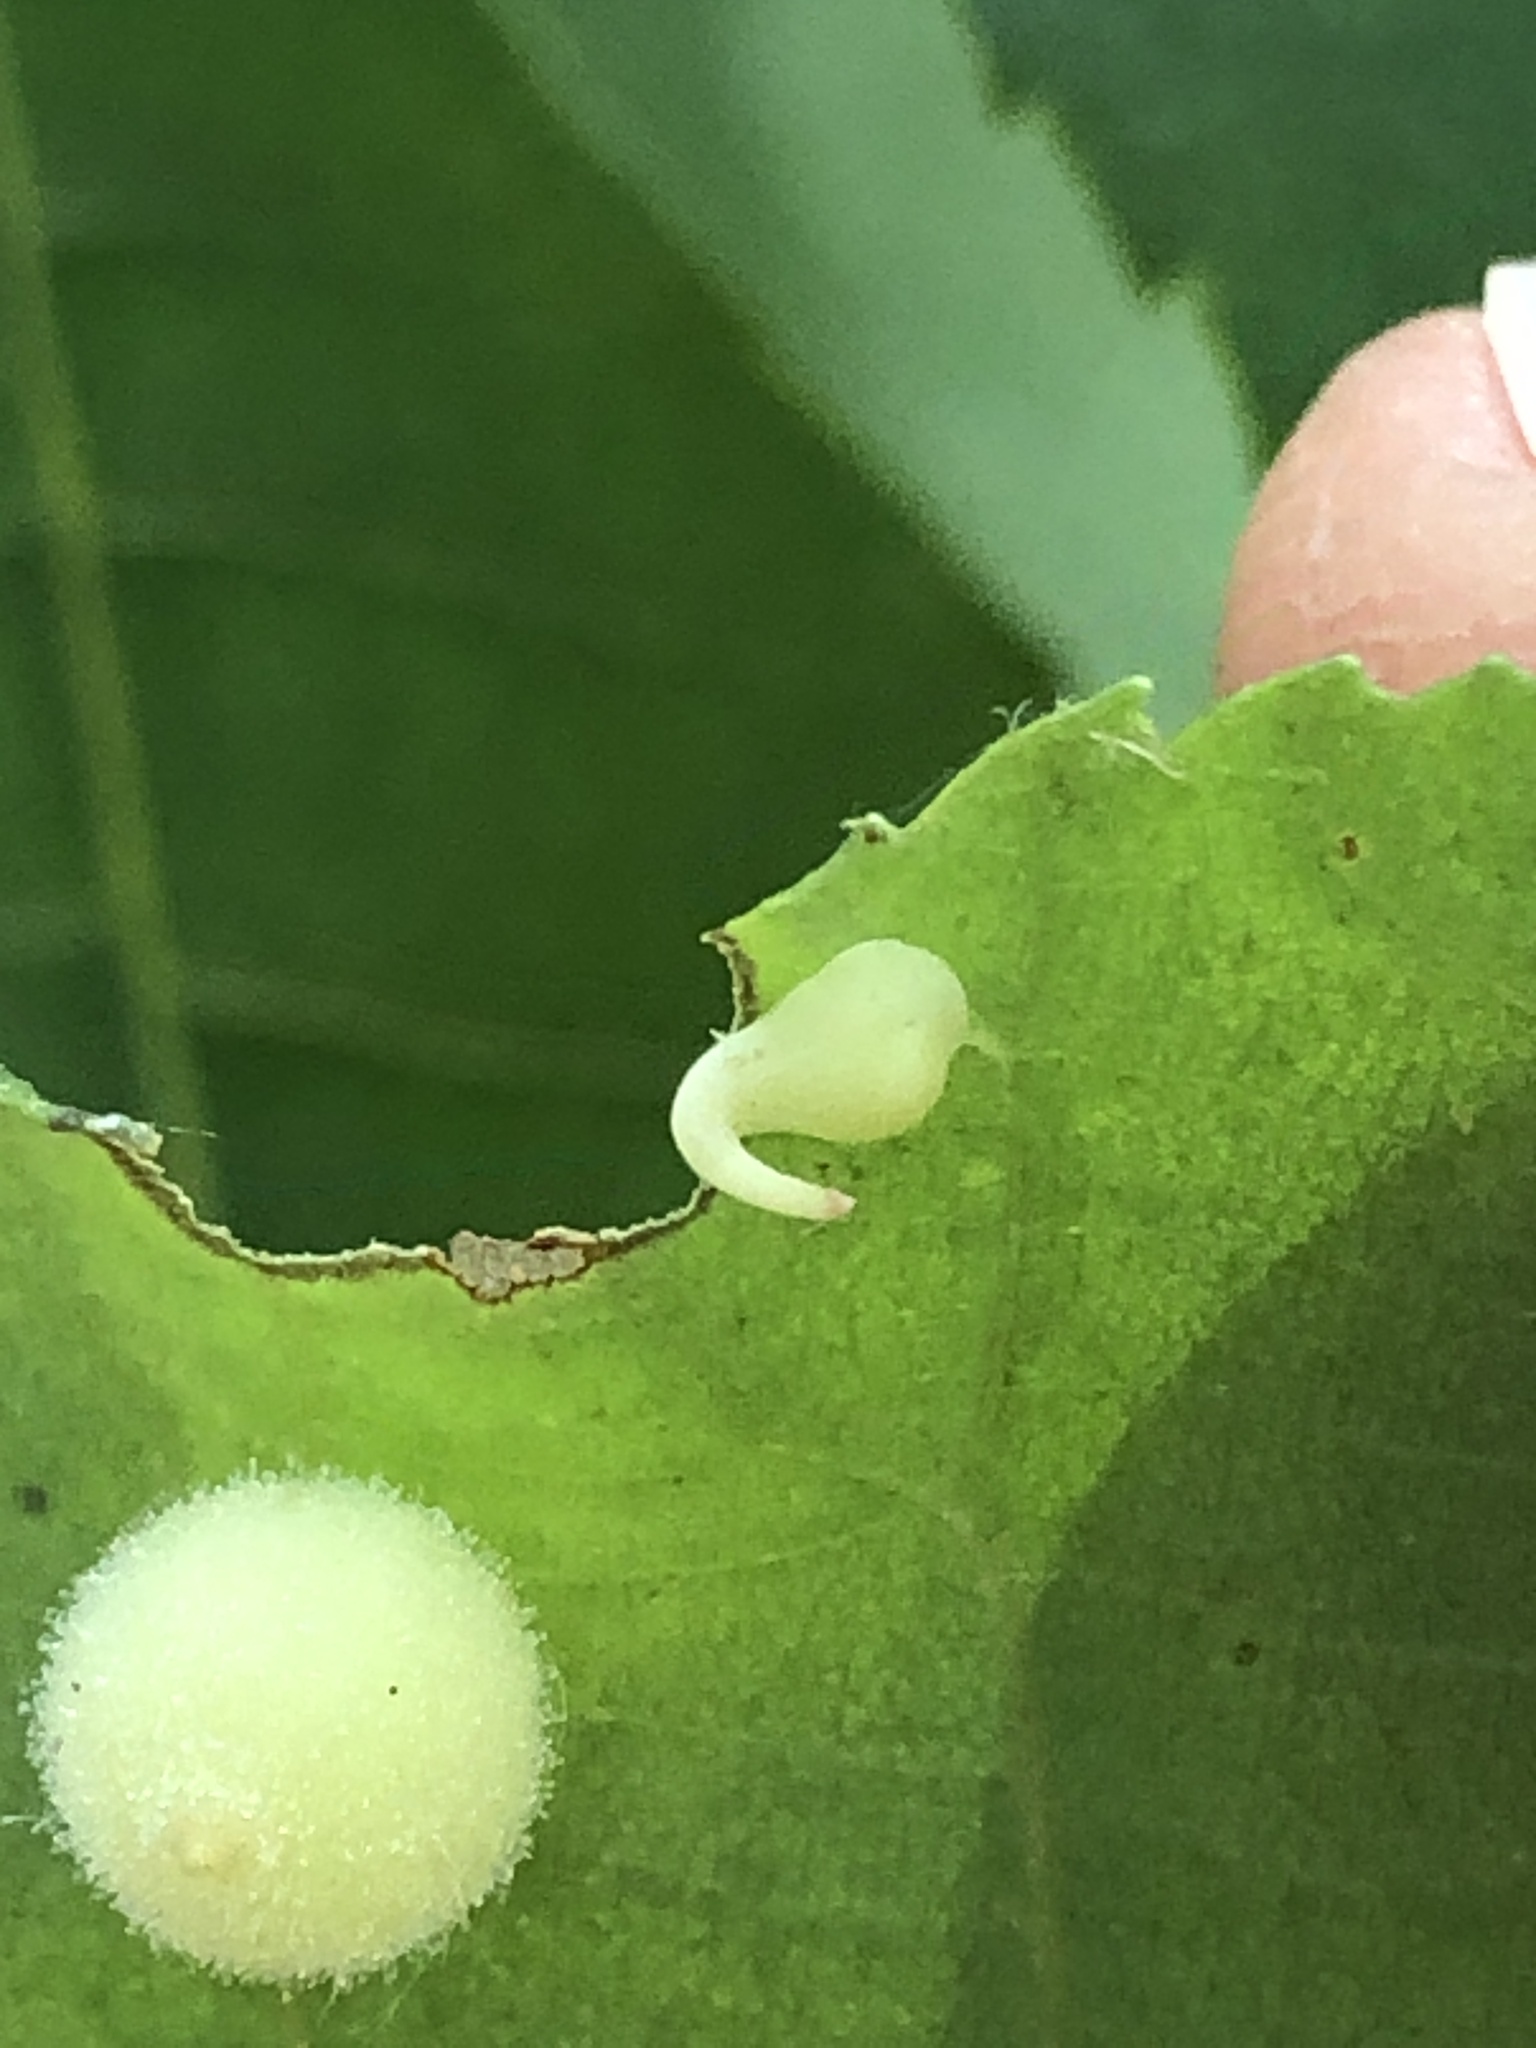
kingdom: Animalia
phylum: Arthropoda
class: Insecta
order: Diptera
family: Cecidomyiidae
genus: Caryomyia
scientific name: Caryomyia recurvata
